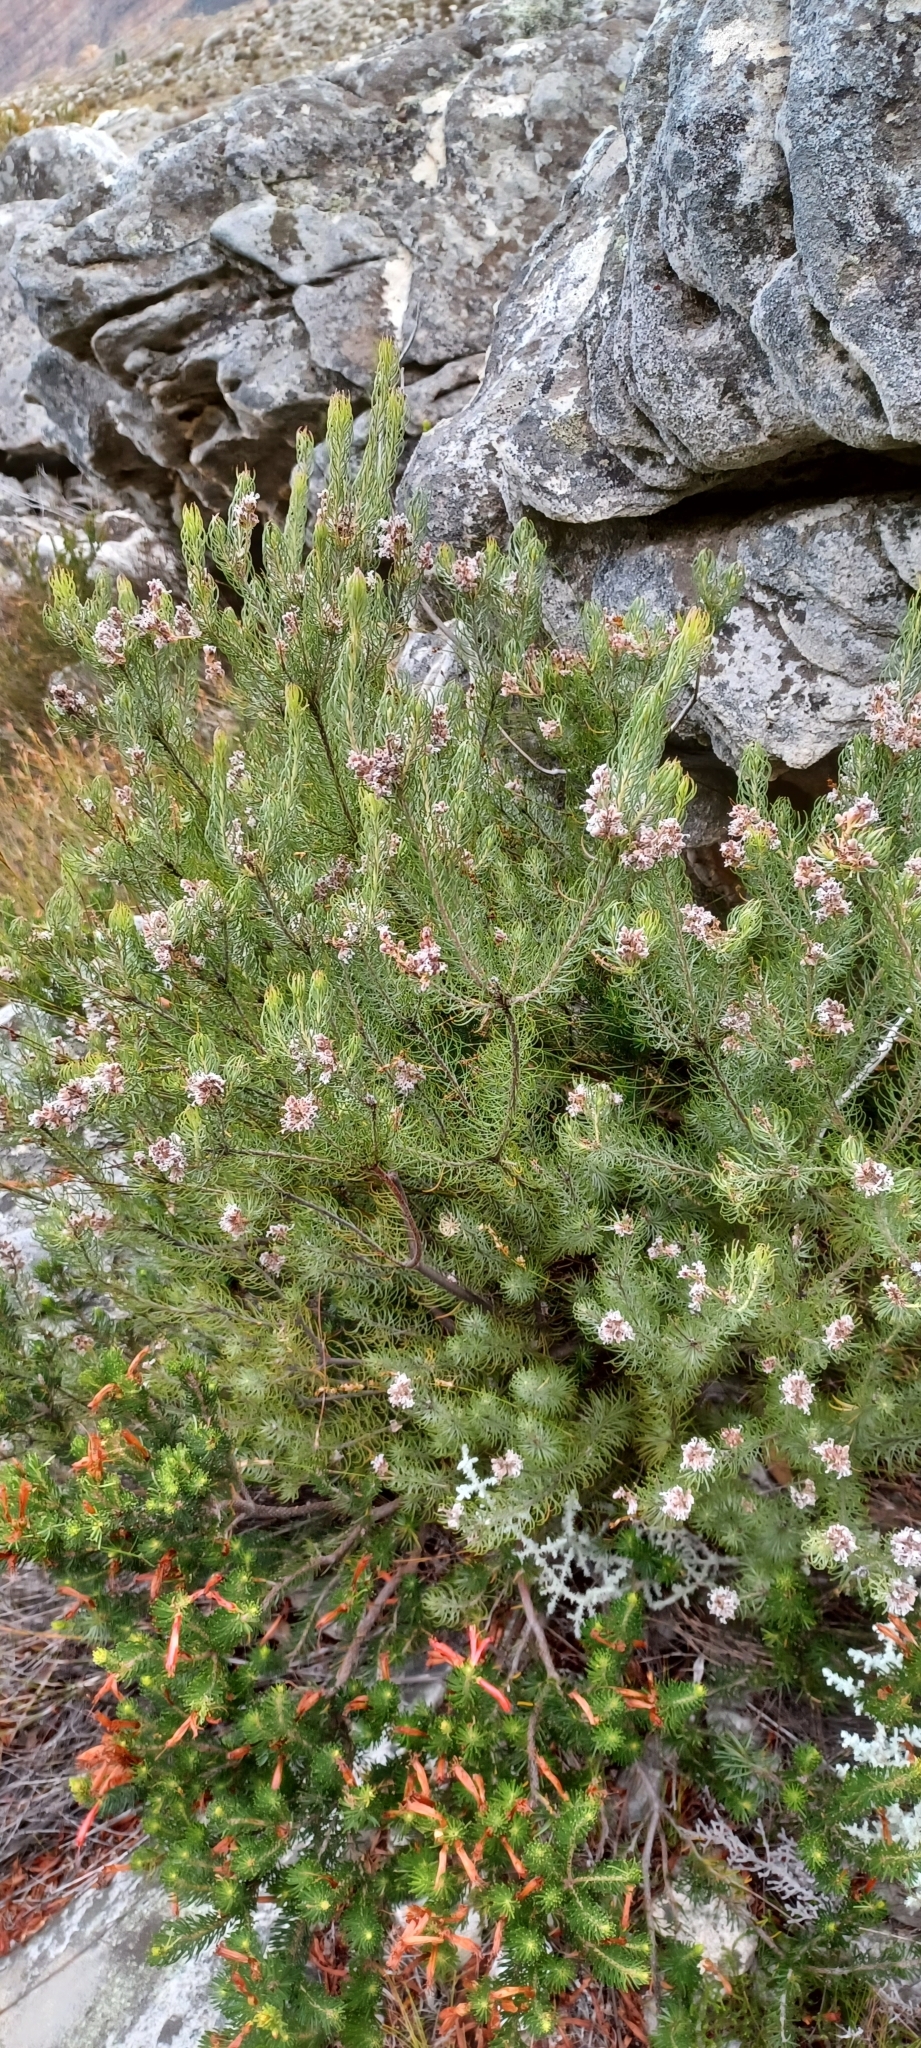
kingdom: Plantae
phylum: Tracheophyta
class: Magnoliopsida
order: Proteales
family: Proteaceae
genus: Spatalla
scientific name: Spatalla incurva
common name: Swan-head spoon
